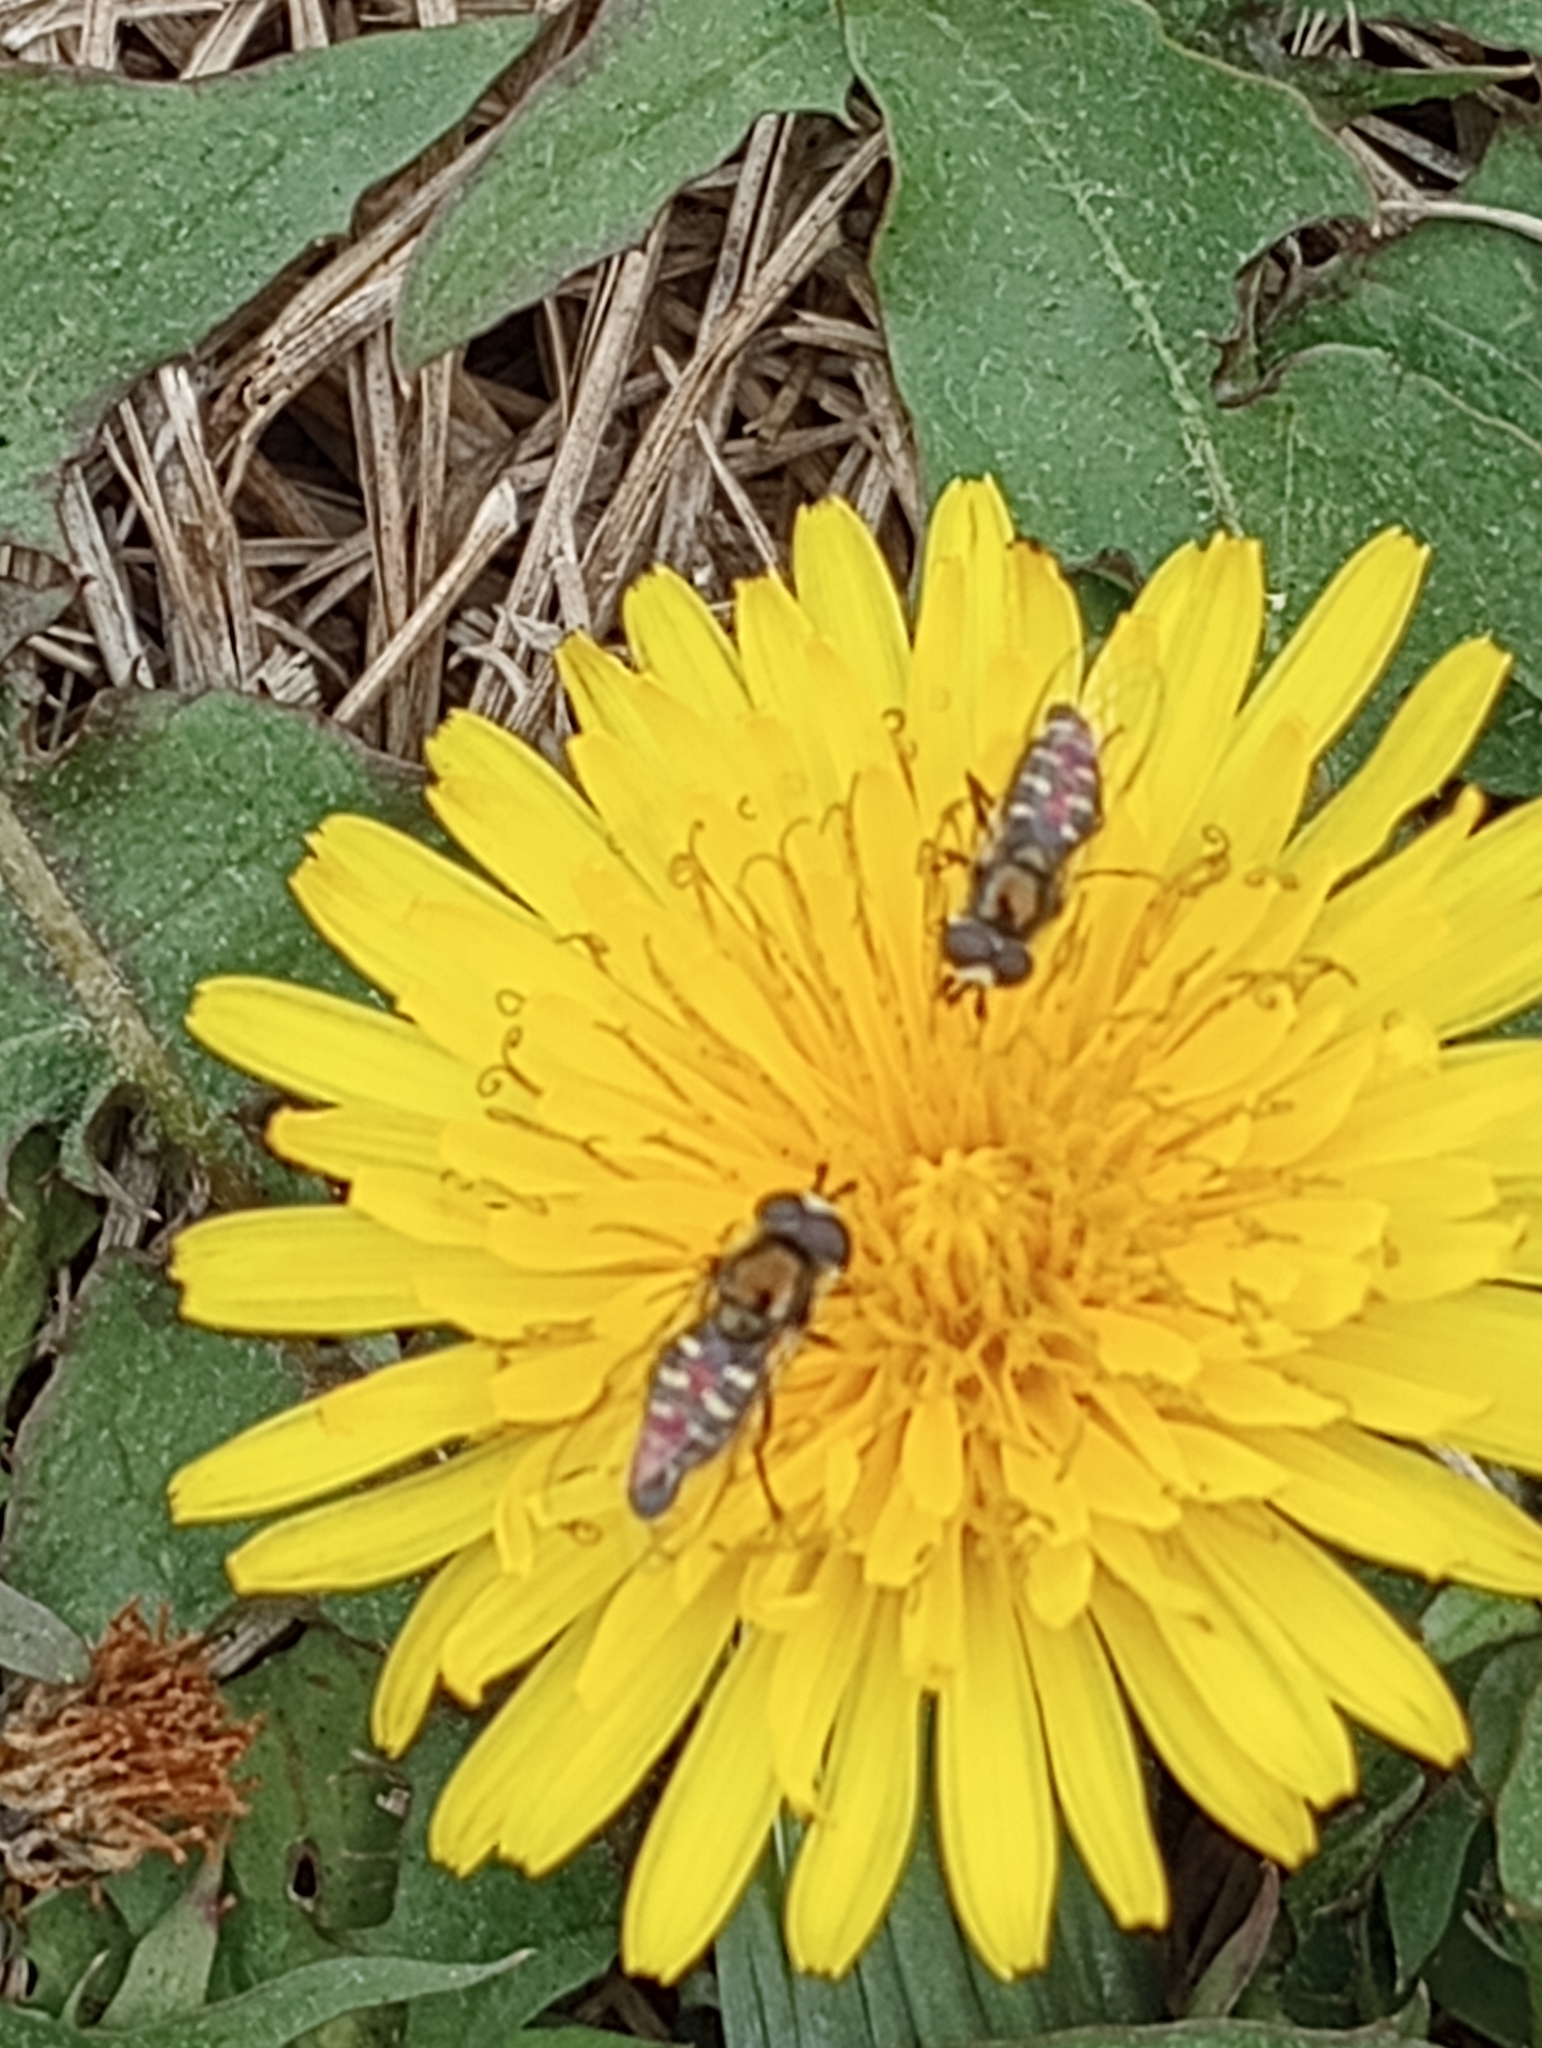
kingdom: Animalia
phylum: Arthropoda
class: Insecta
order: Diptera
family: Syrphidae
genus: Eupeodes
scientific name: Eupeodes volucris
